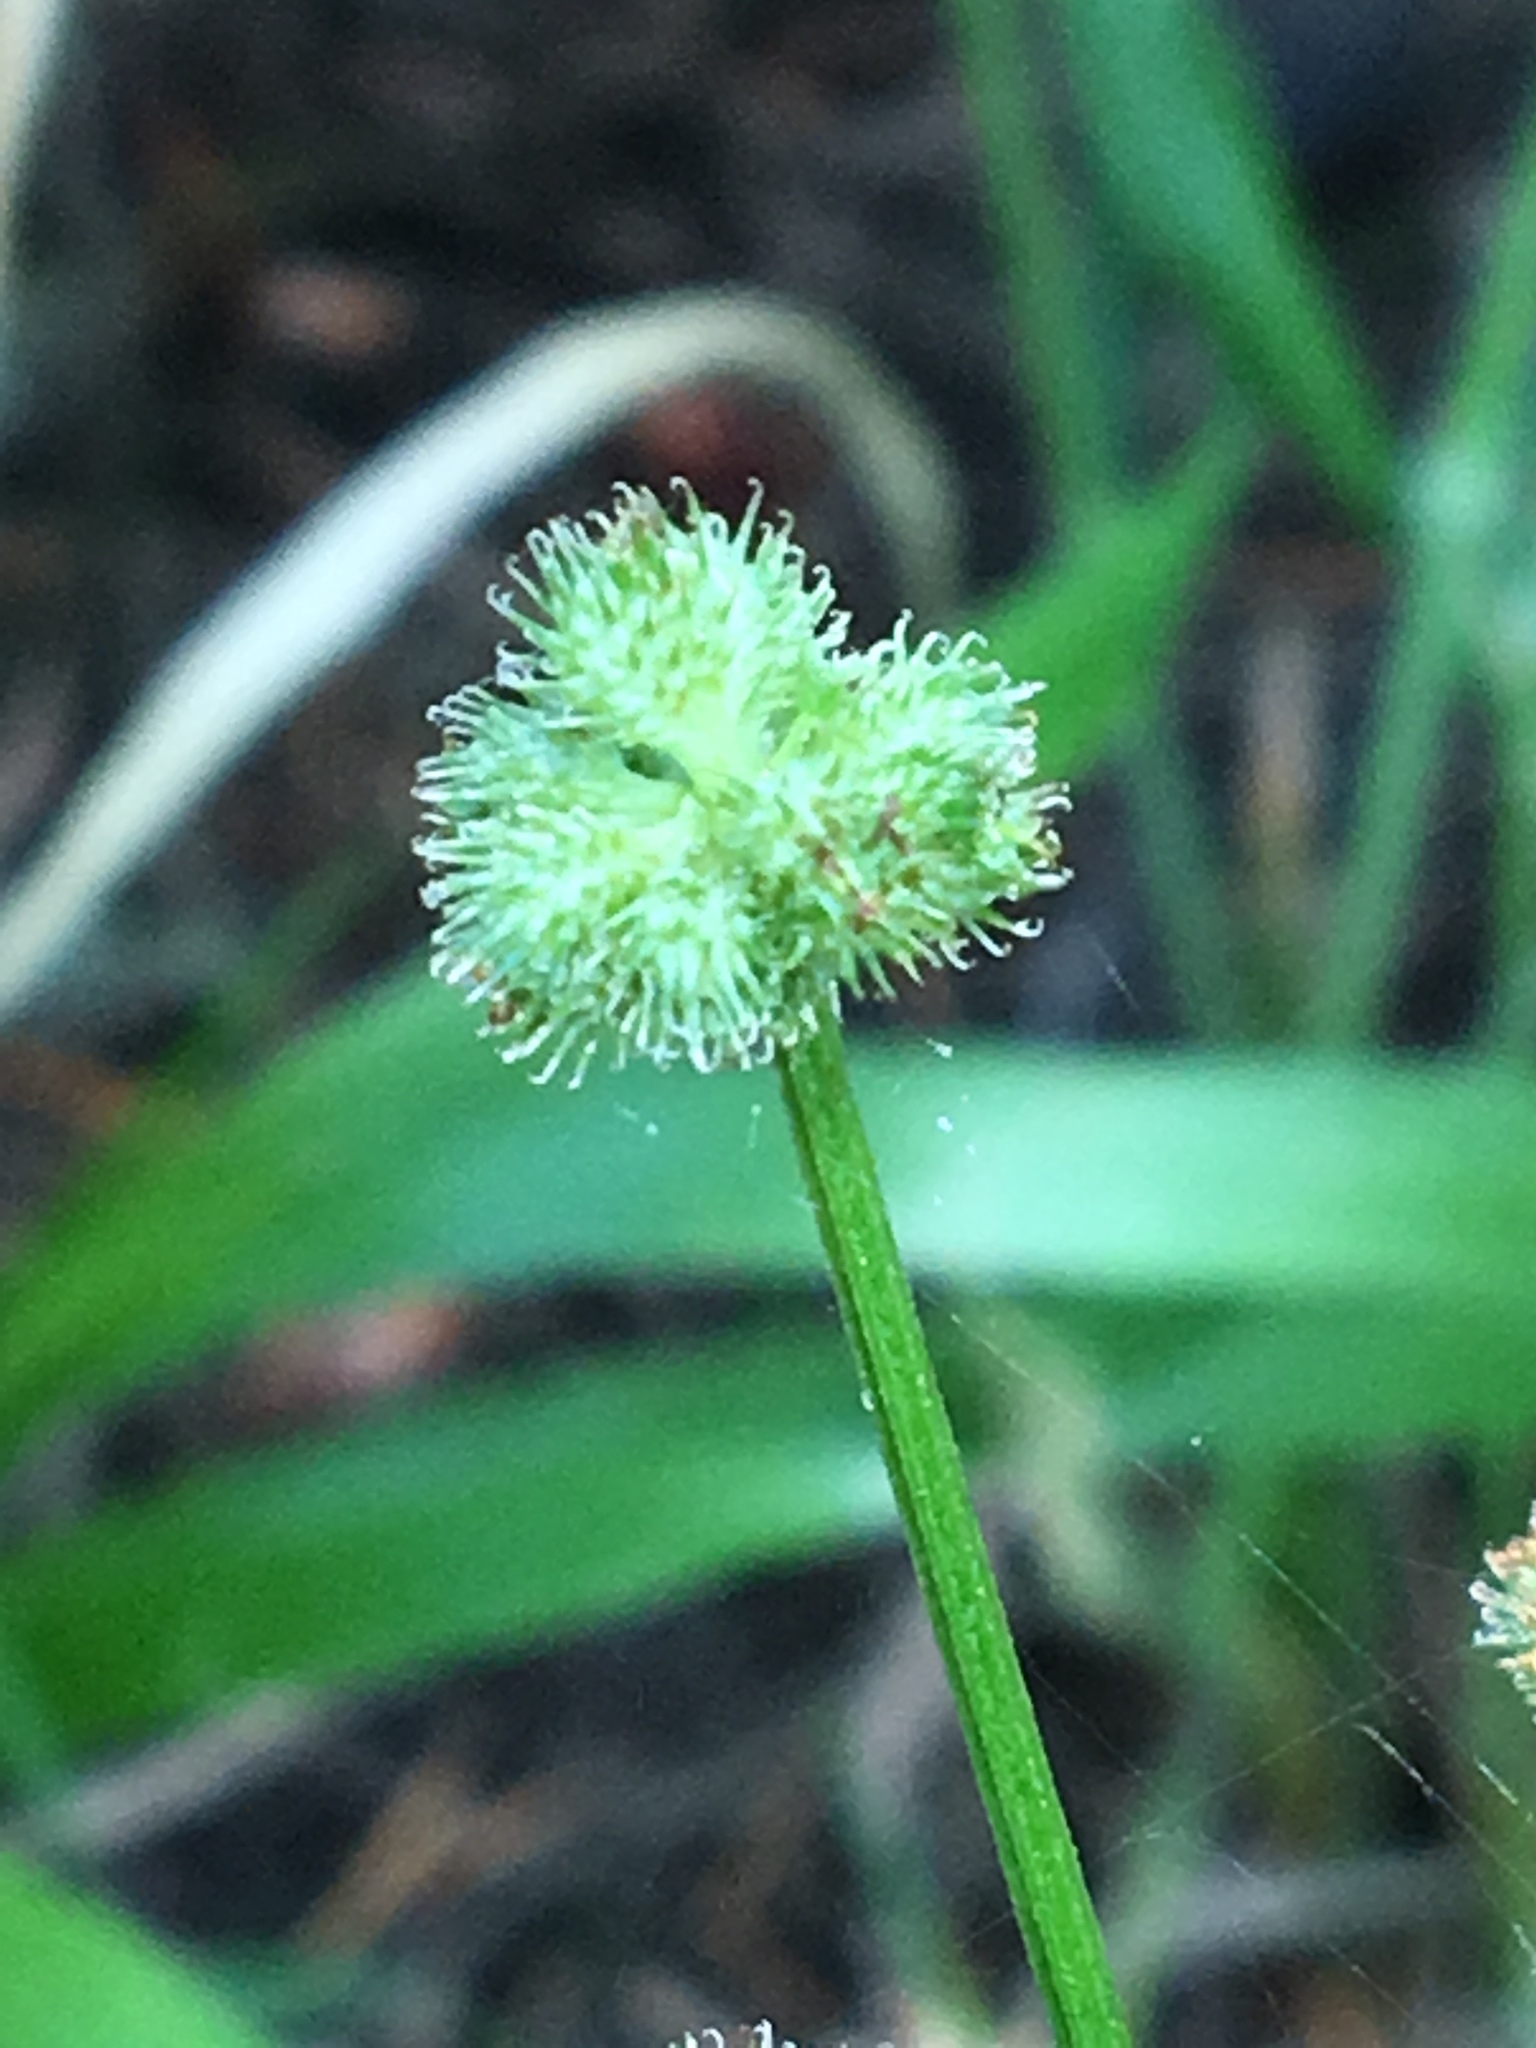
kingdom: Plantae
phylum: Tracheophyta
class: Magnoliopsida
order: Apiales
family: Apiaceae
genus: Sanicula
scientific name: Sanicula crassicaulis
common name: Western snakeroot
